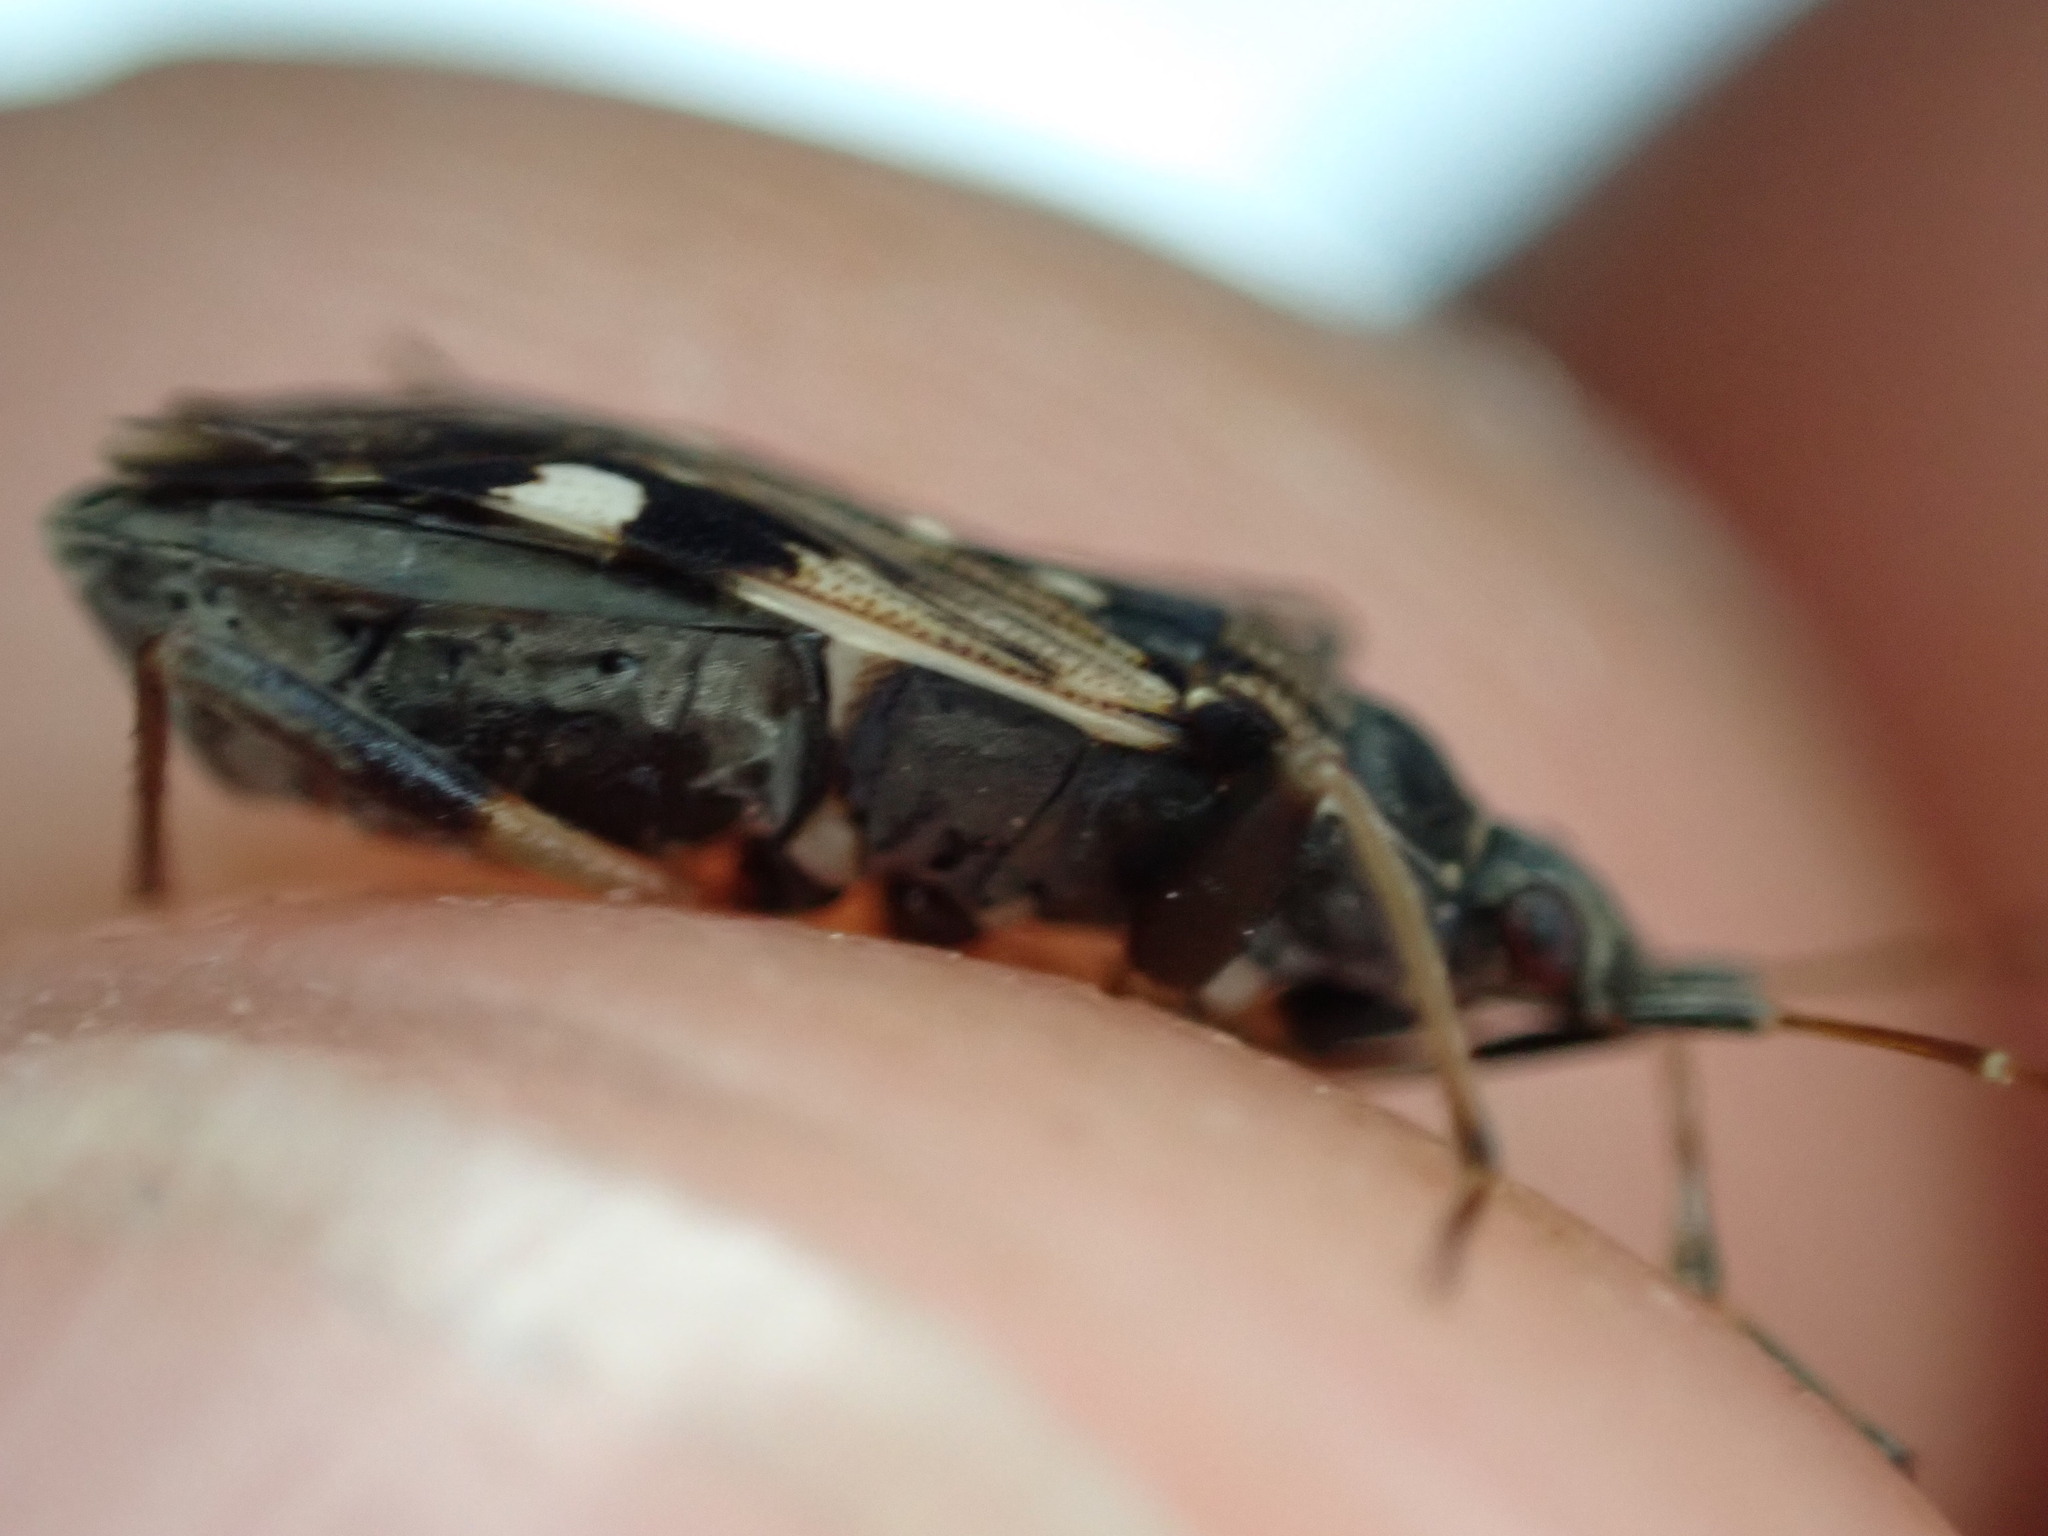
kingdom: Animalia
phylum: Arthropoda
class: Insecta
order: Hemiptera
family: Rhyparochromidae
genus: Beosus
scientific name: Beosus maritimus
